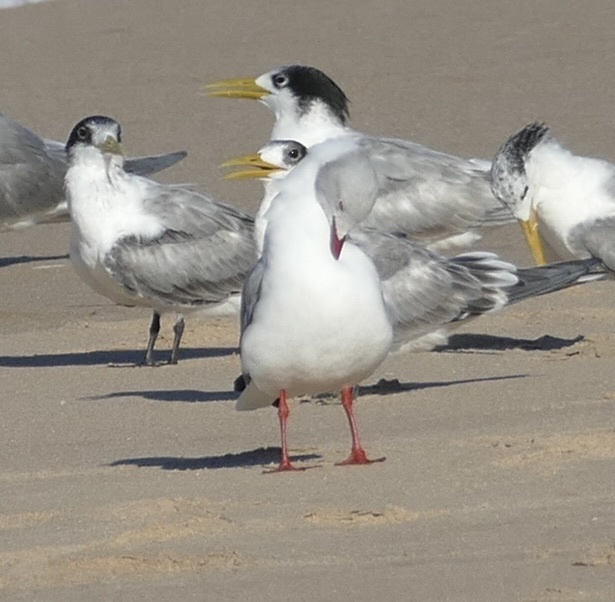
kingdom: Animalia
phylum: Chordata
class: Aves
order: Charadriiformes
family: Laridae
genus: Chroicocephalus
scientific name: Chroicocephalus cirrocephalus
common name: Grey-headed gull
